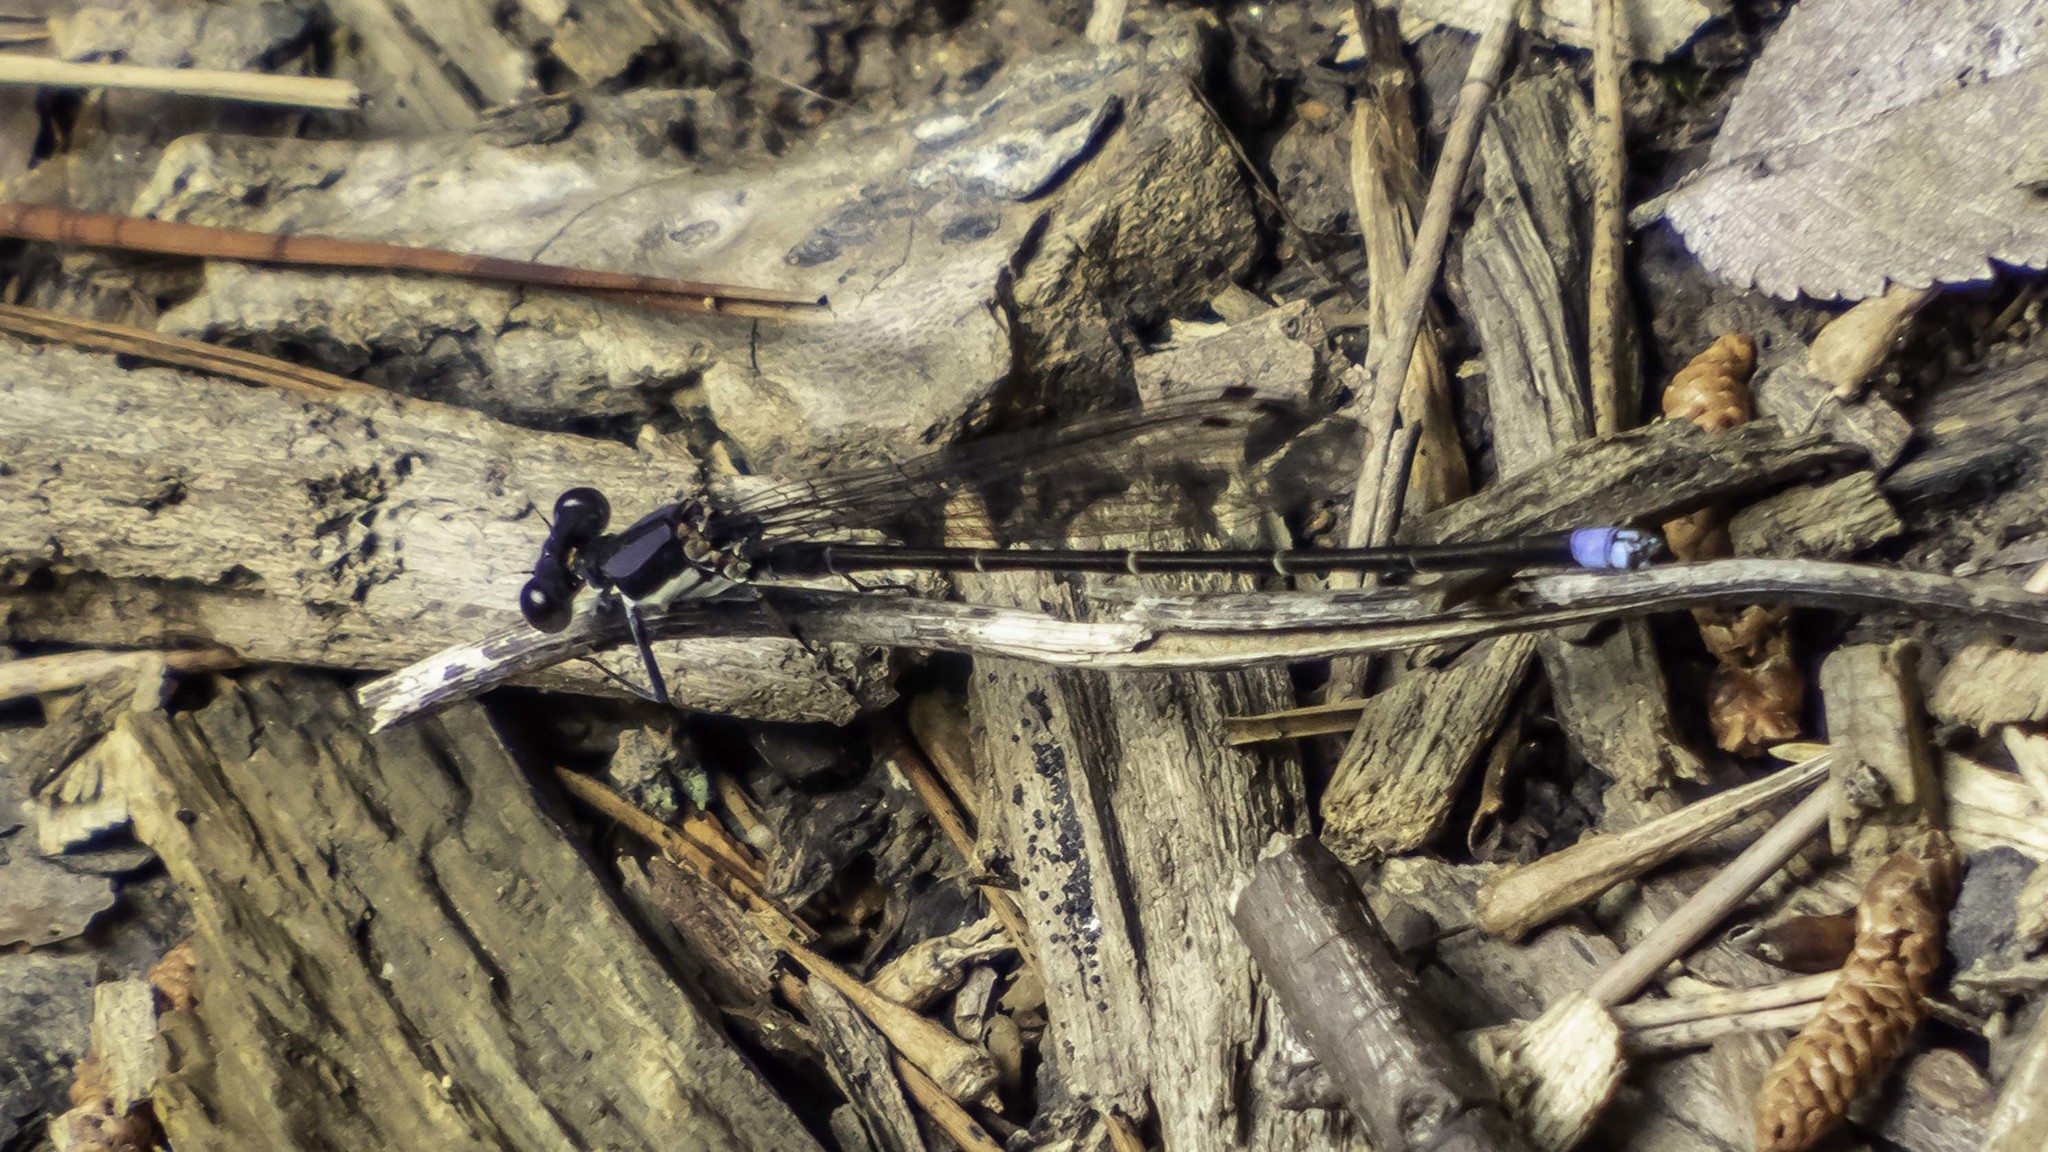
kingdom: Animalia
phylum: Arthropoda
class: Insecta
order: Odonata
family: Coenagrionidae
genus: Argia
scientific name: Argia tibialis
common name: Blue-tipped dancer
